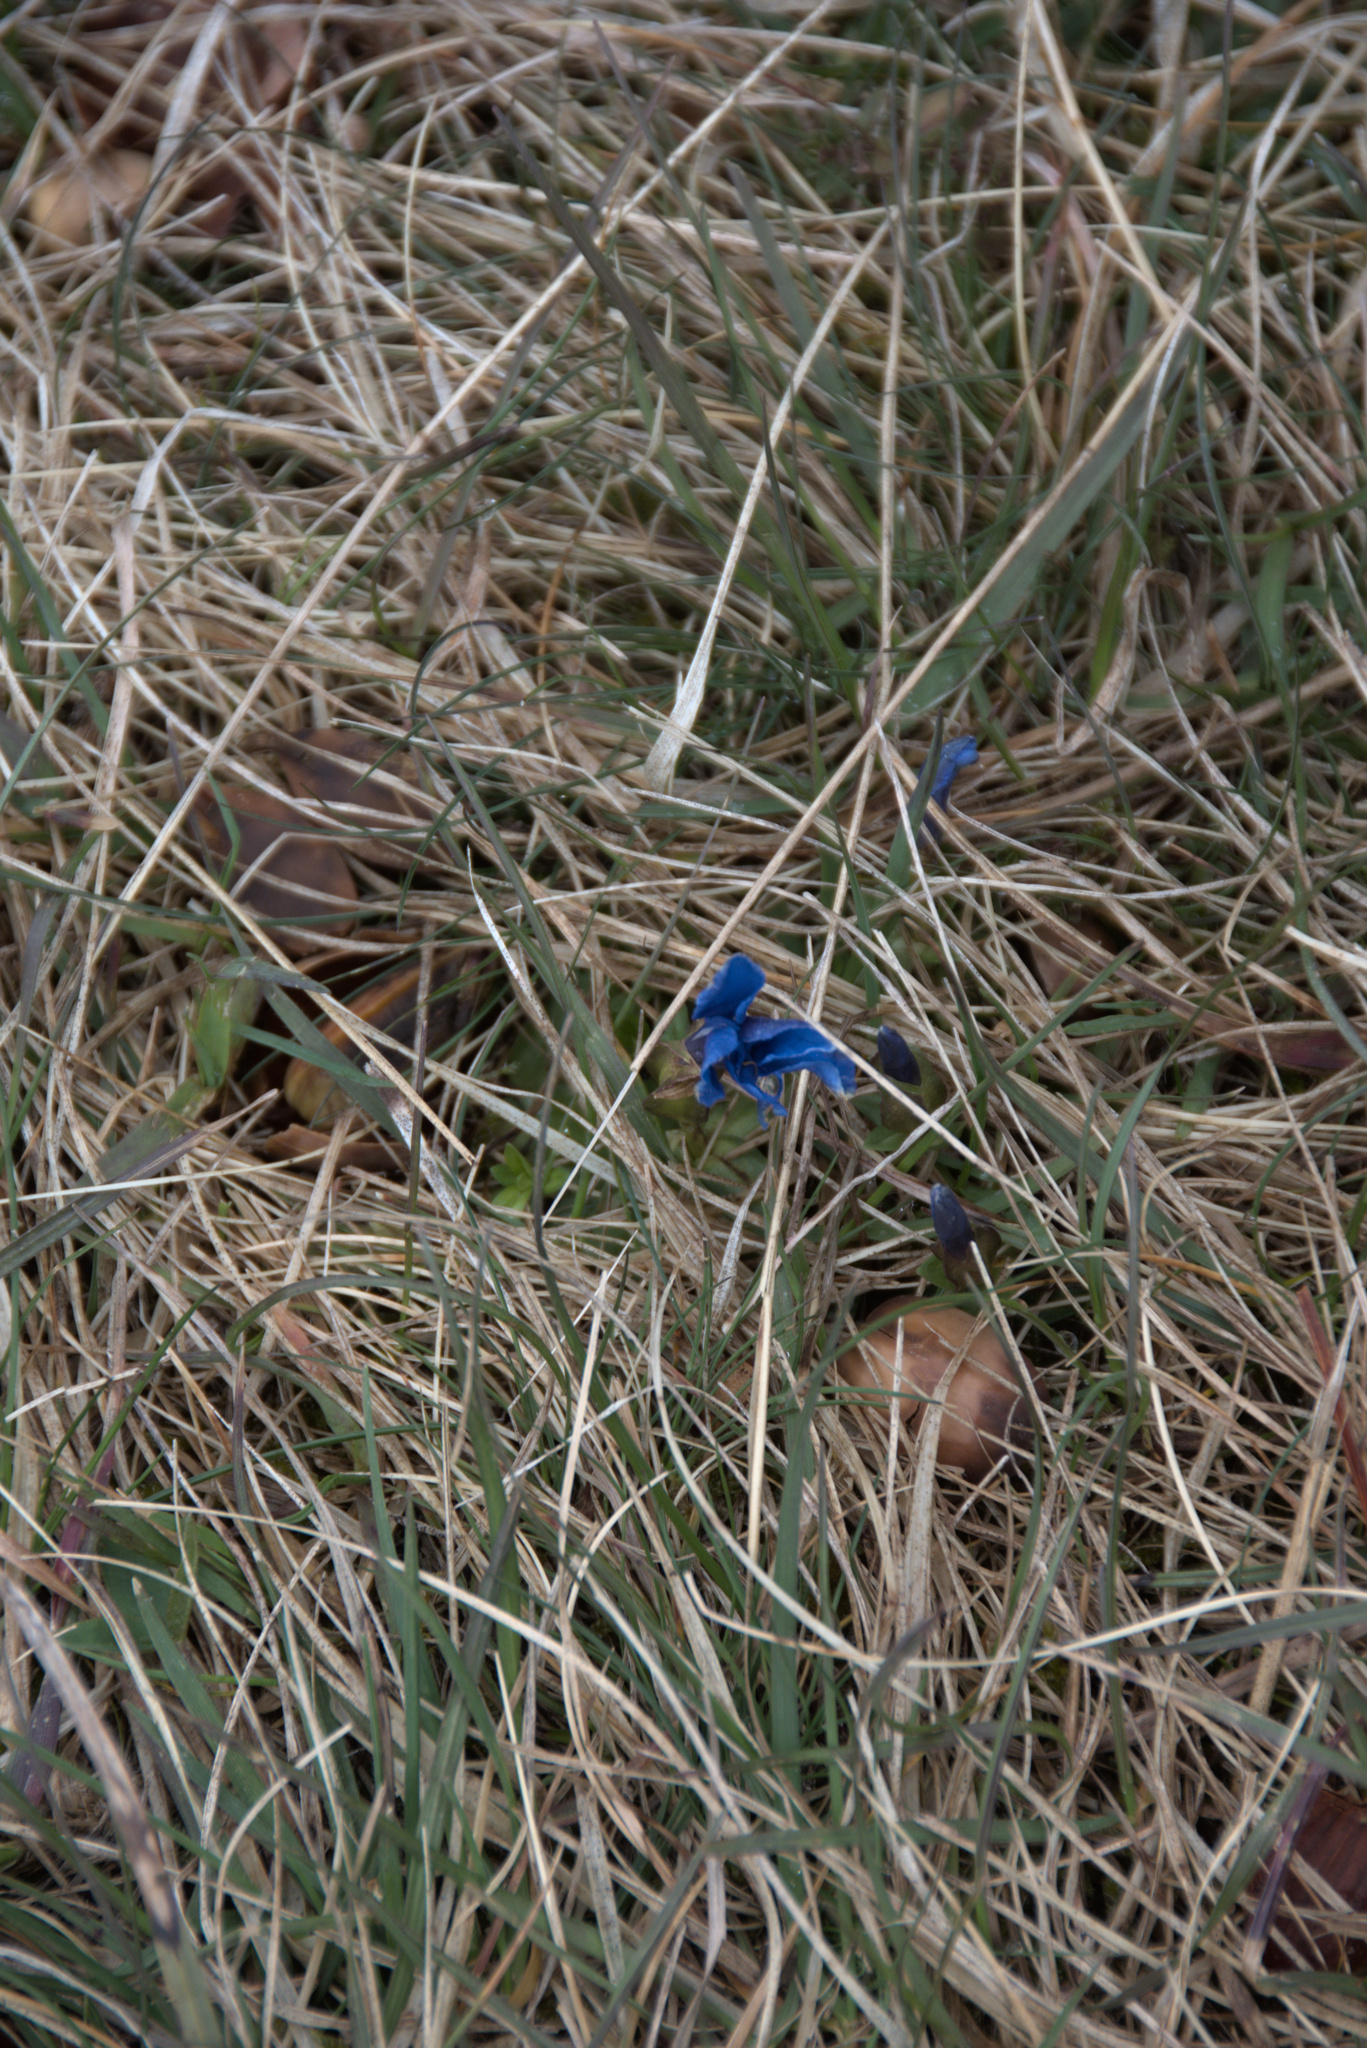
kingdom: Plantae
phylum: Tracheophyta
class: Magnoliopsida
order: Gentianales
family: Gentianaceae
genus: Gentiana
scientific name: Gentiana verna
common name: Spring gentian
